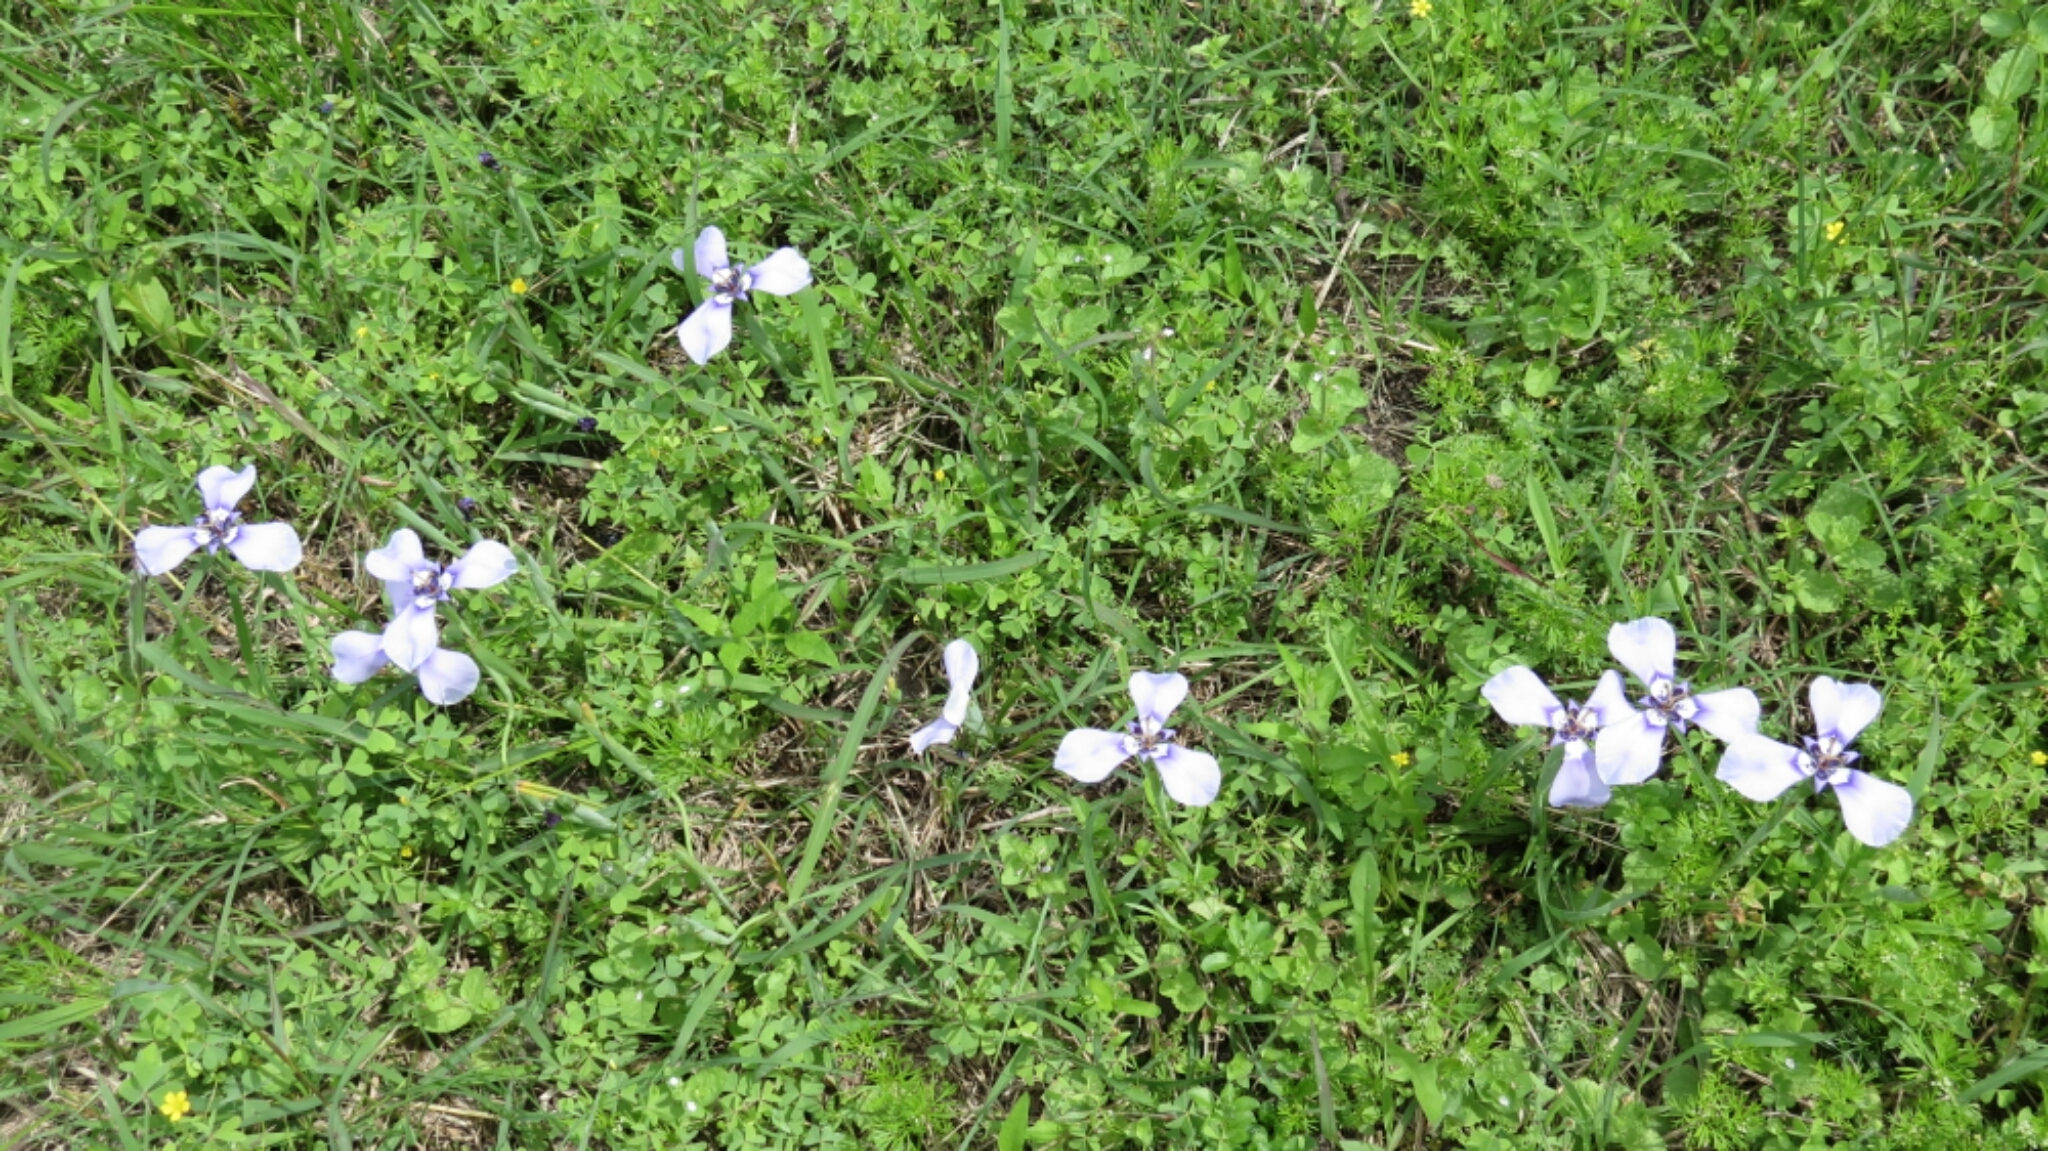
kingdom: Plantae
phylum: Tracheophyta
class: Liliopsida
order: Asparagales
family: Iridaceae
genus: Herbertia
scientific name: Herbertia lahue
